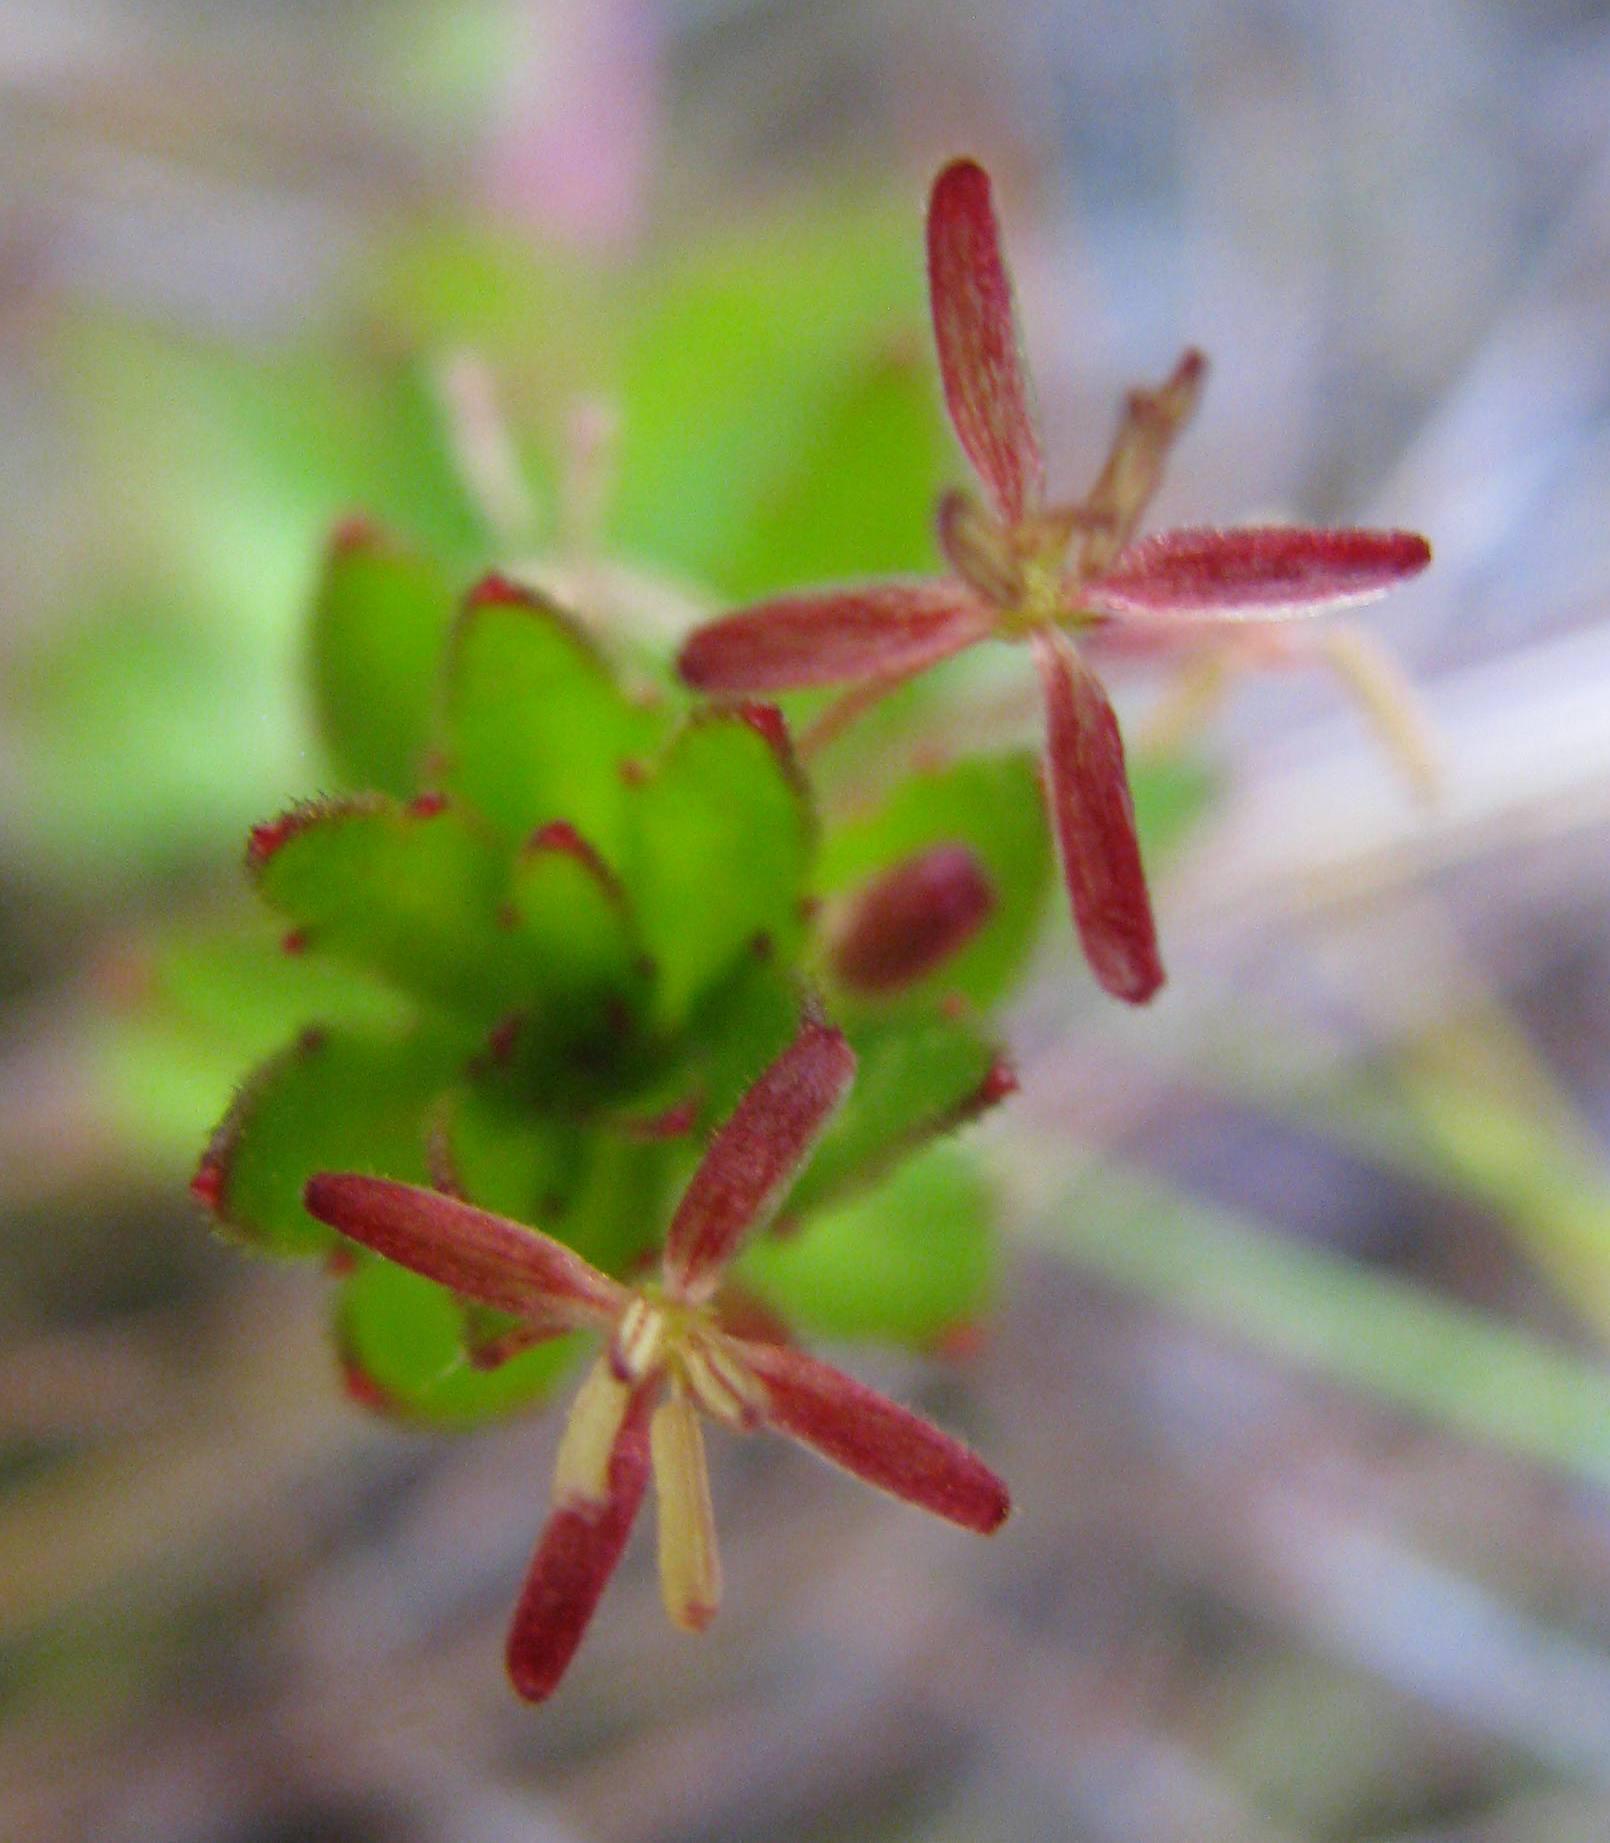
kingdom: Plantae
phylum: Tracheophyta
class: Magnoliopsida
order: Saxifragales
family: Haloragaceae
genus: Laurembergia
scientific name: Laurembergia repens
